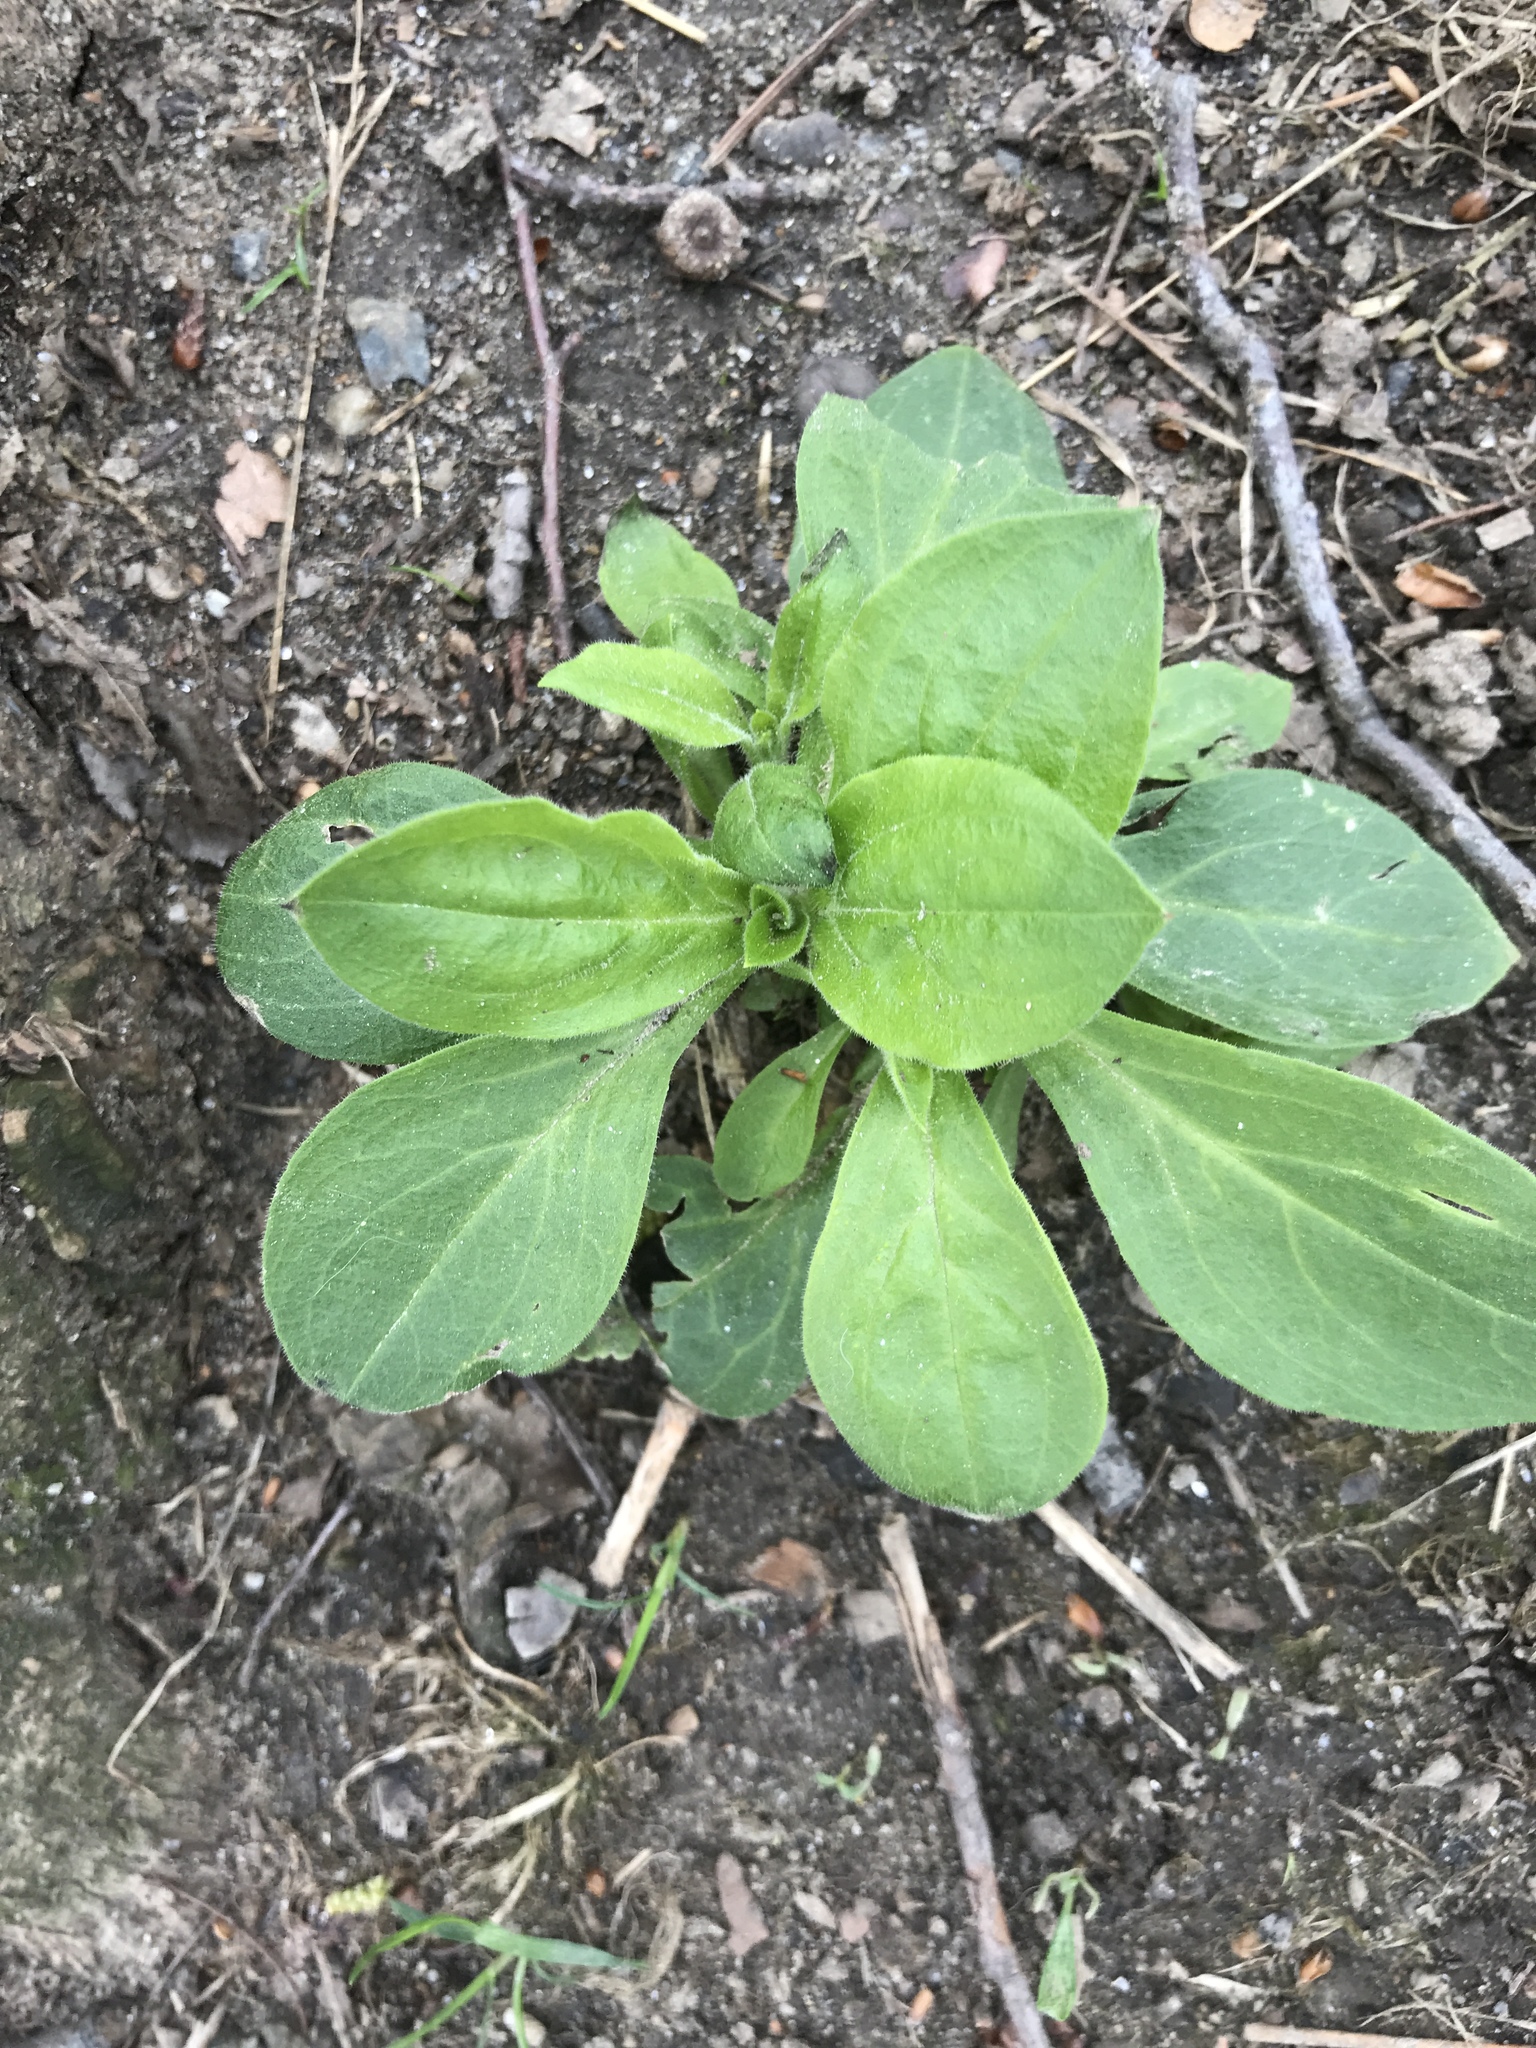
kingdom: Plantae
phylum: Tracheophyta
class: Magnoliopsida
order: Caryophyllales
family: Caryophyllaceae
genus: Silene
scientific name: Silene latifolia
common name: White campion
